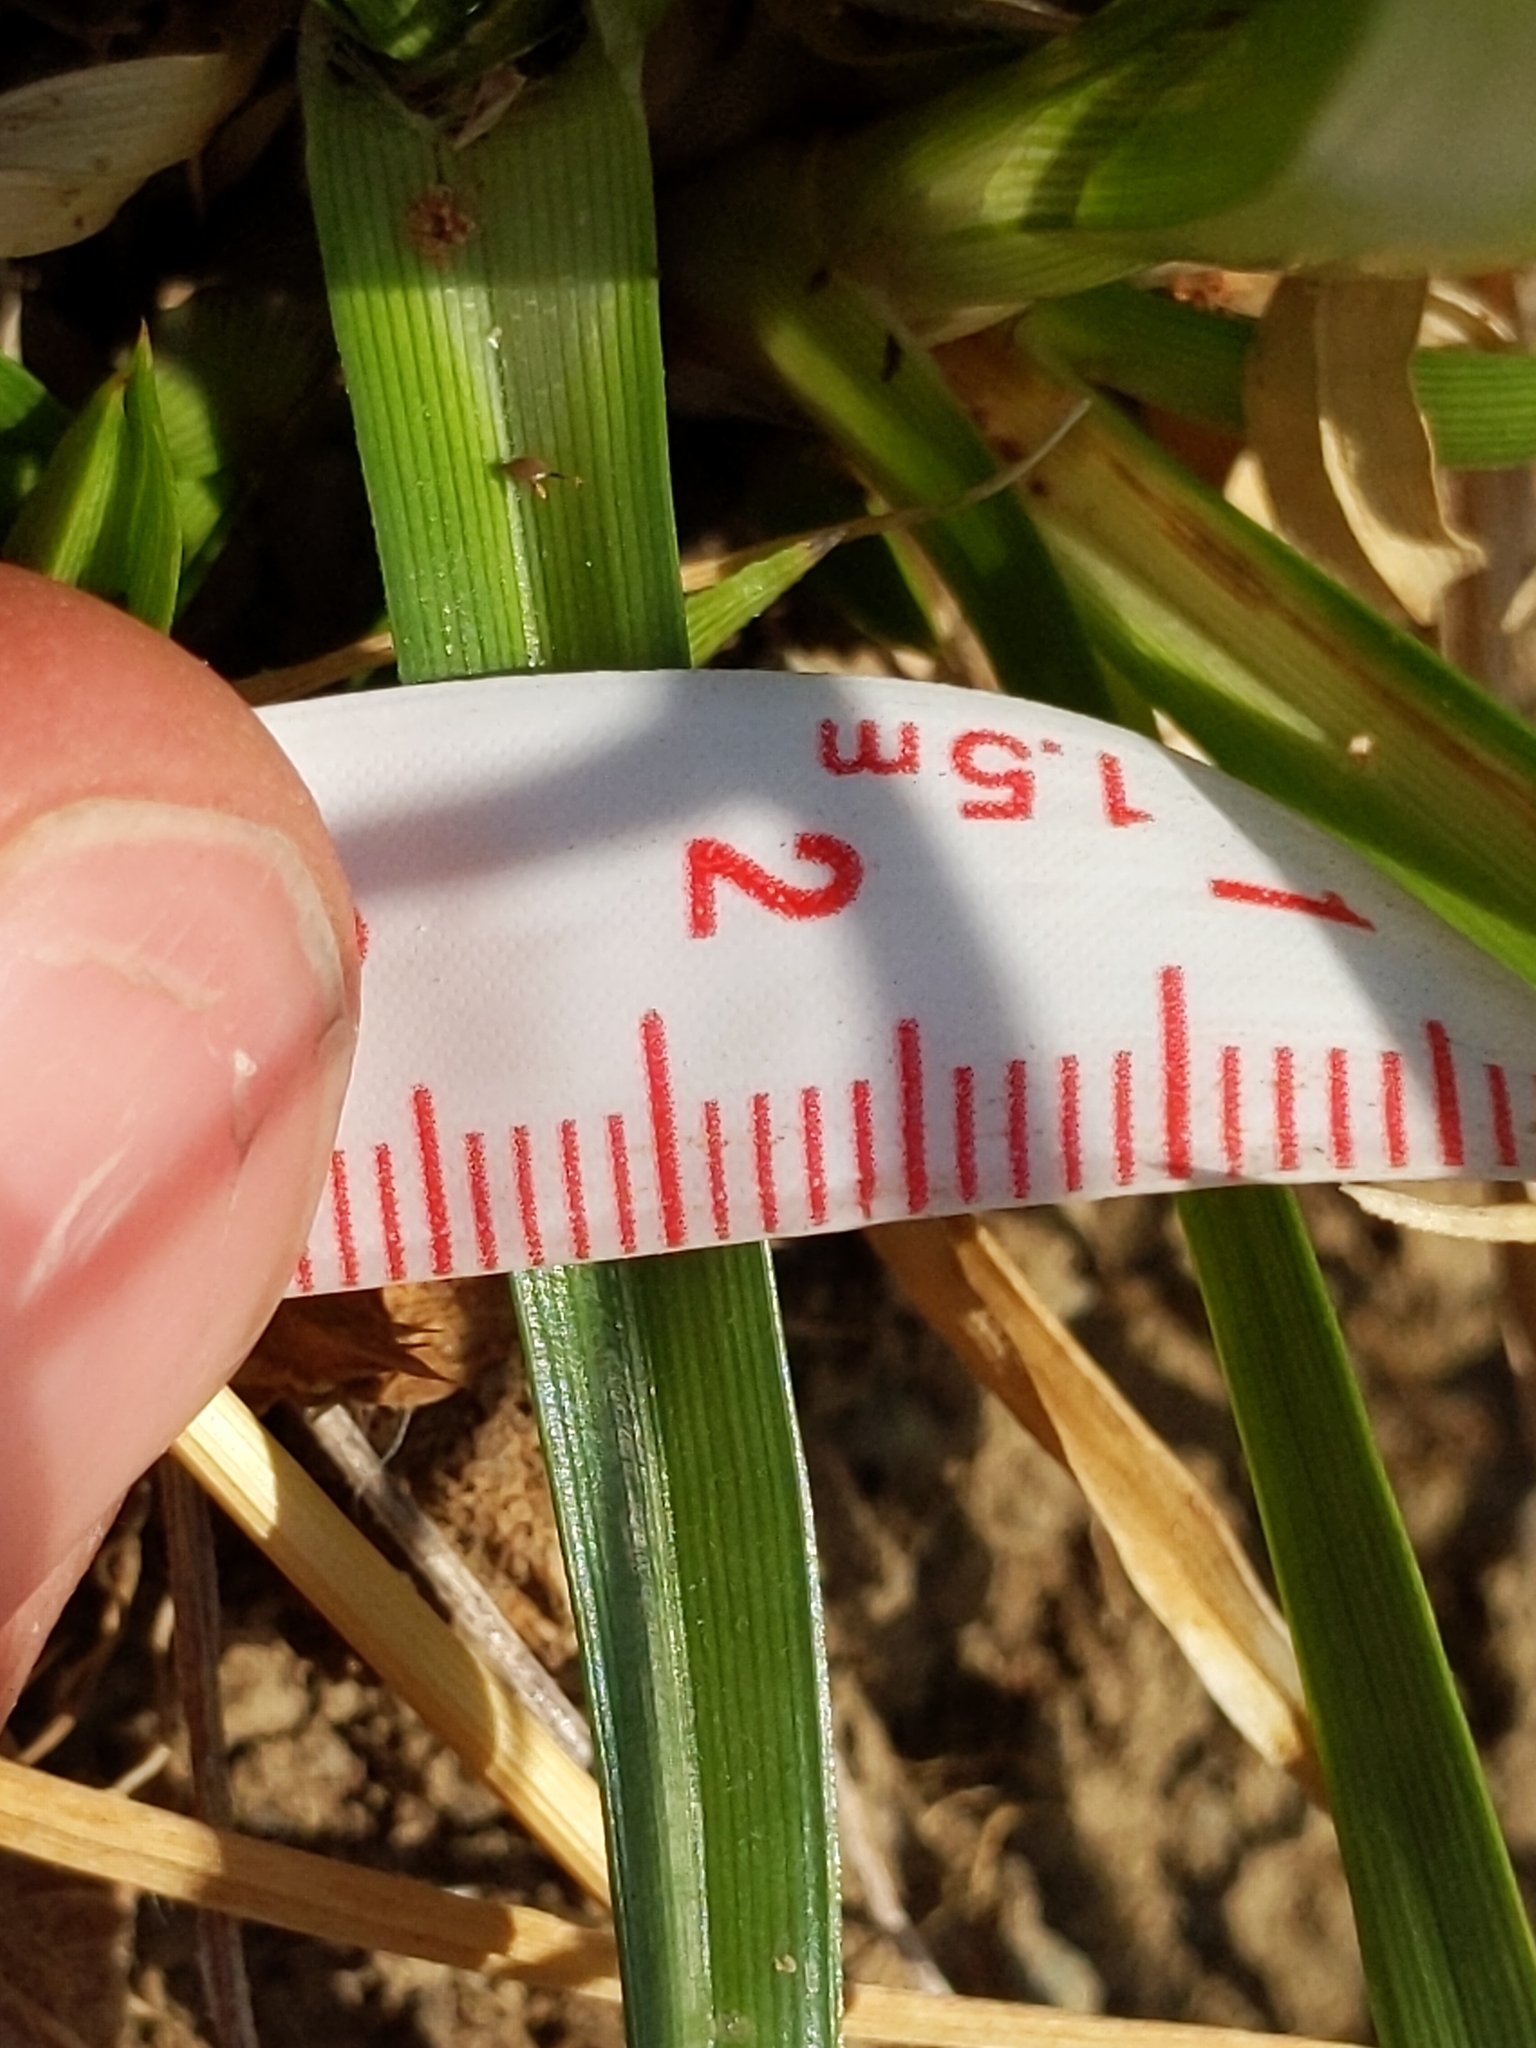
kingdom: Plantae
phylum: Tracheophyta
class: Liliopsida
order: Poales
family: Cyperaceae
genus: Cyperus
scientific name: Cyperus eragrostis
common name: Tall flatsedge
